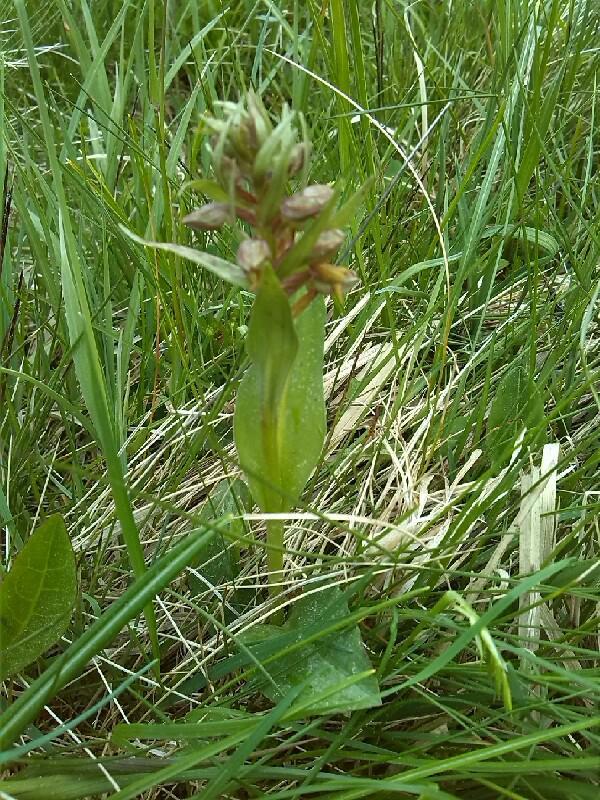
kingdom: Plantae
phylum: Tracheophyta
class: Liliopsida
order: Asparagales
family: Orchidaceae
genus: Dactylorhiza
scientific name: Dactylorhiza viridis
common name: Longbract frog orchid
